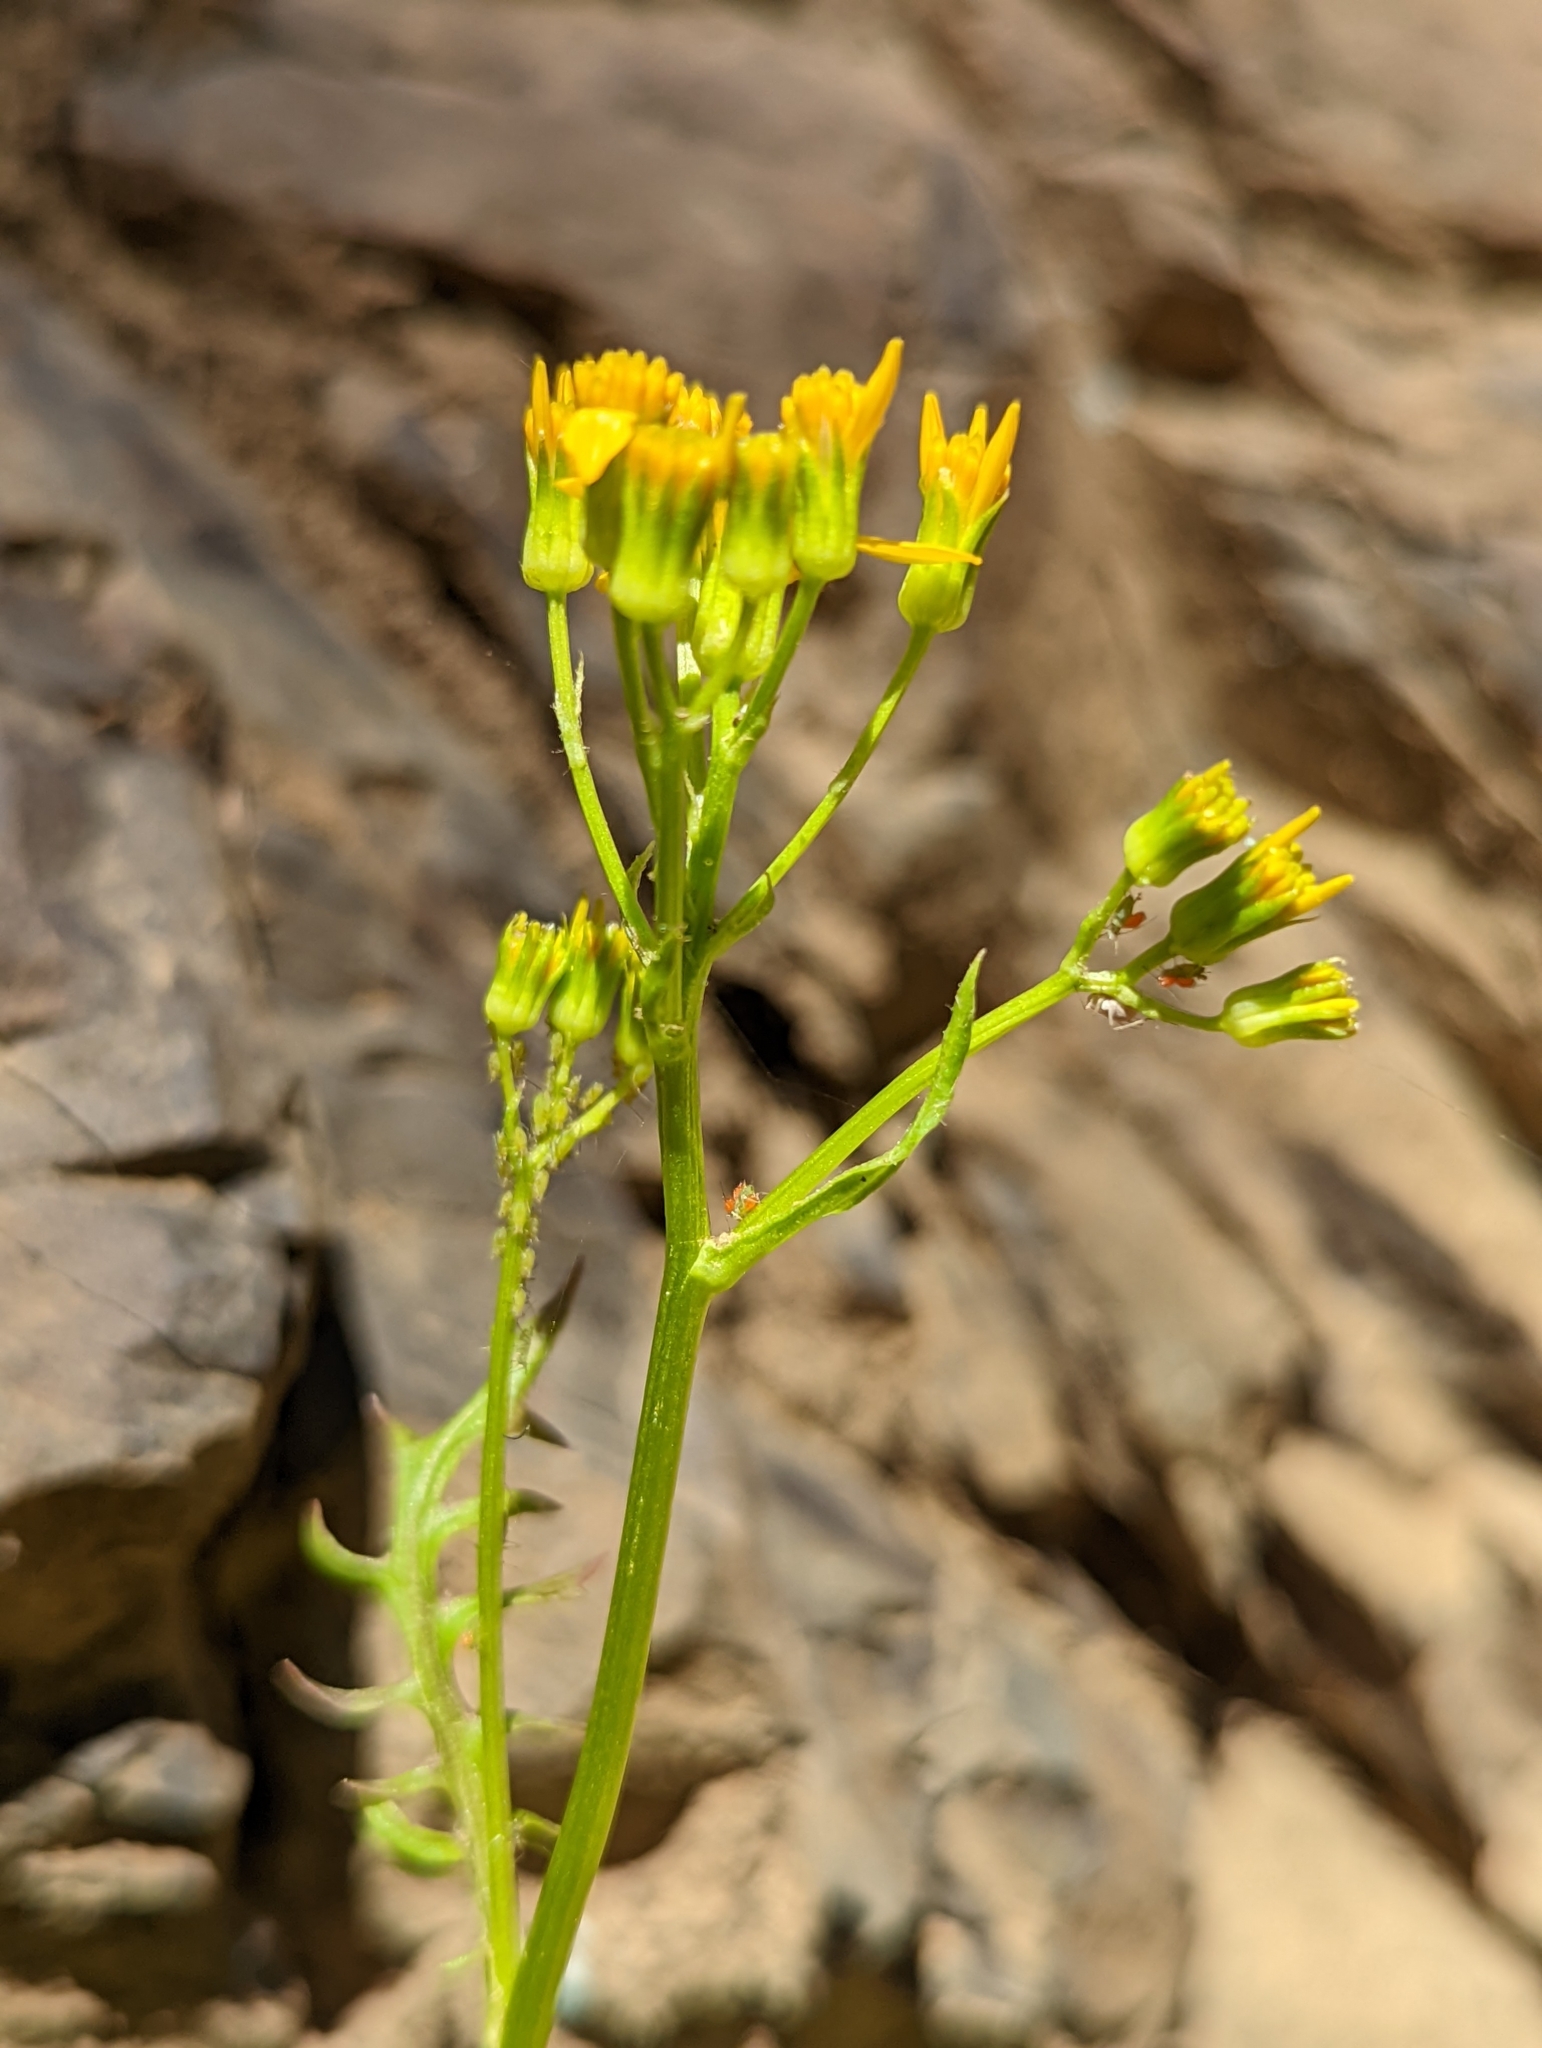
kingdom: Plantae
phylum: Tracheophyta
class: Magnoliopsida
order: Asterales
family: Asteraceae
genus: Packera
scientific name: Packera flettii
